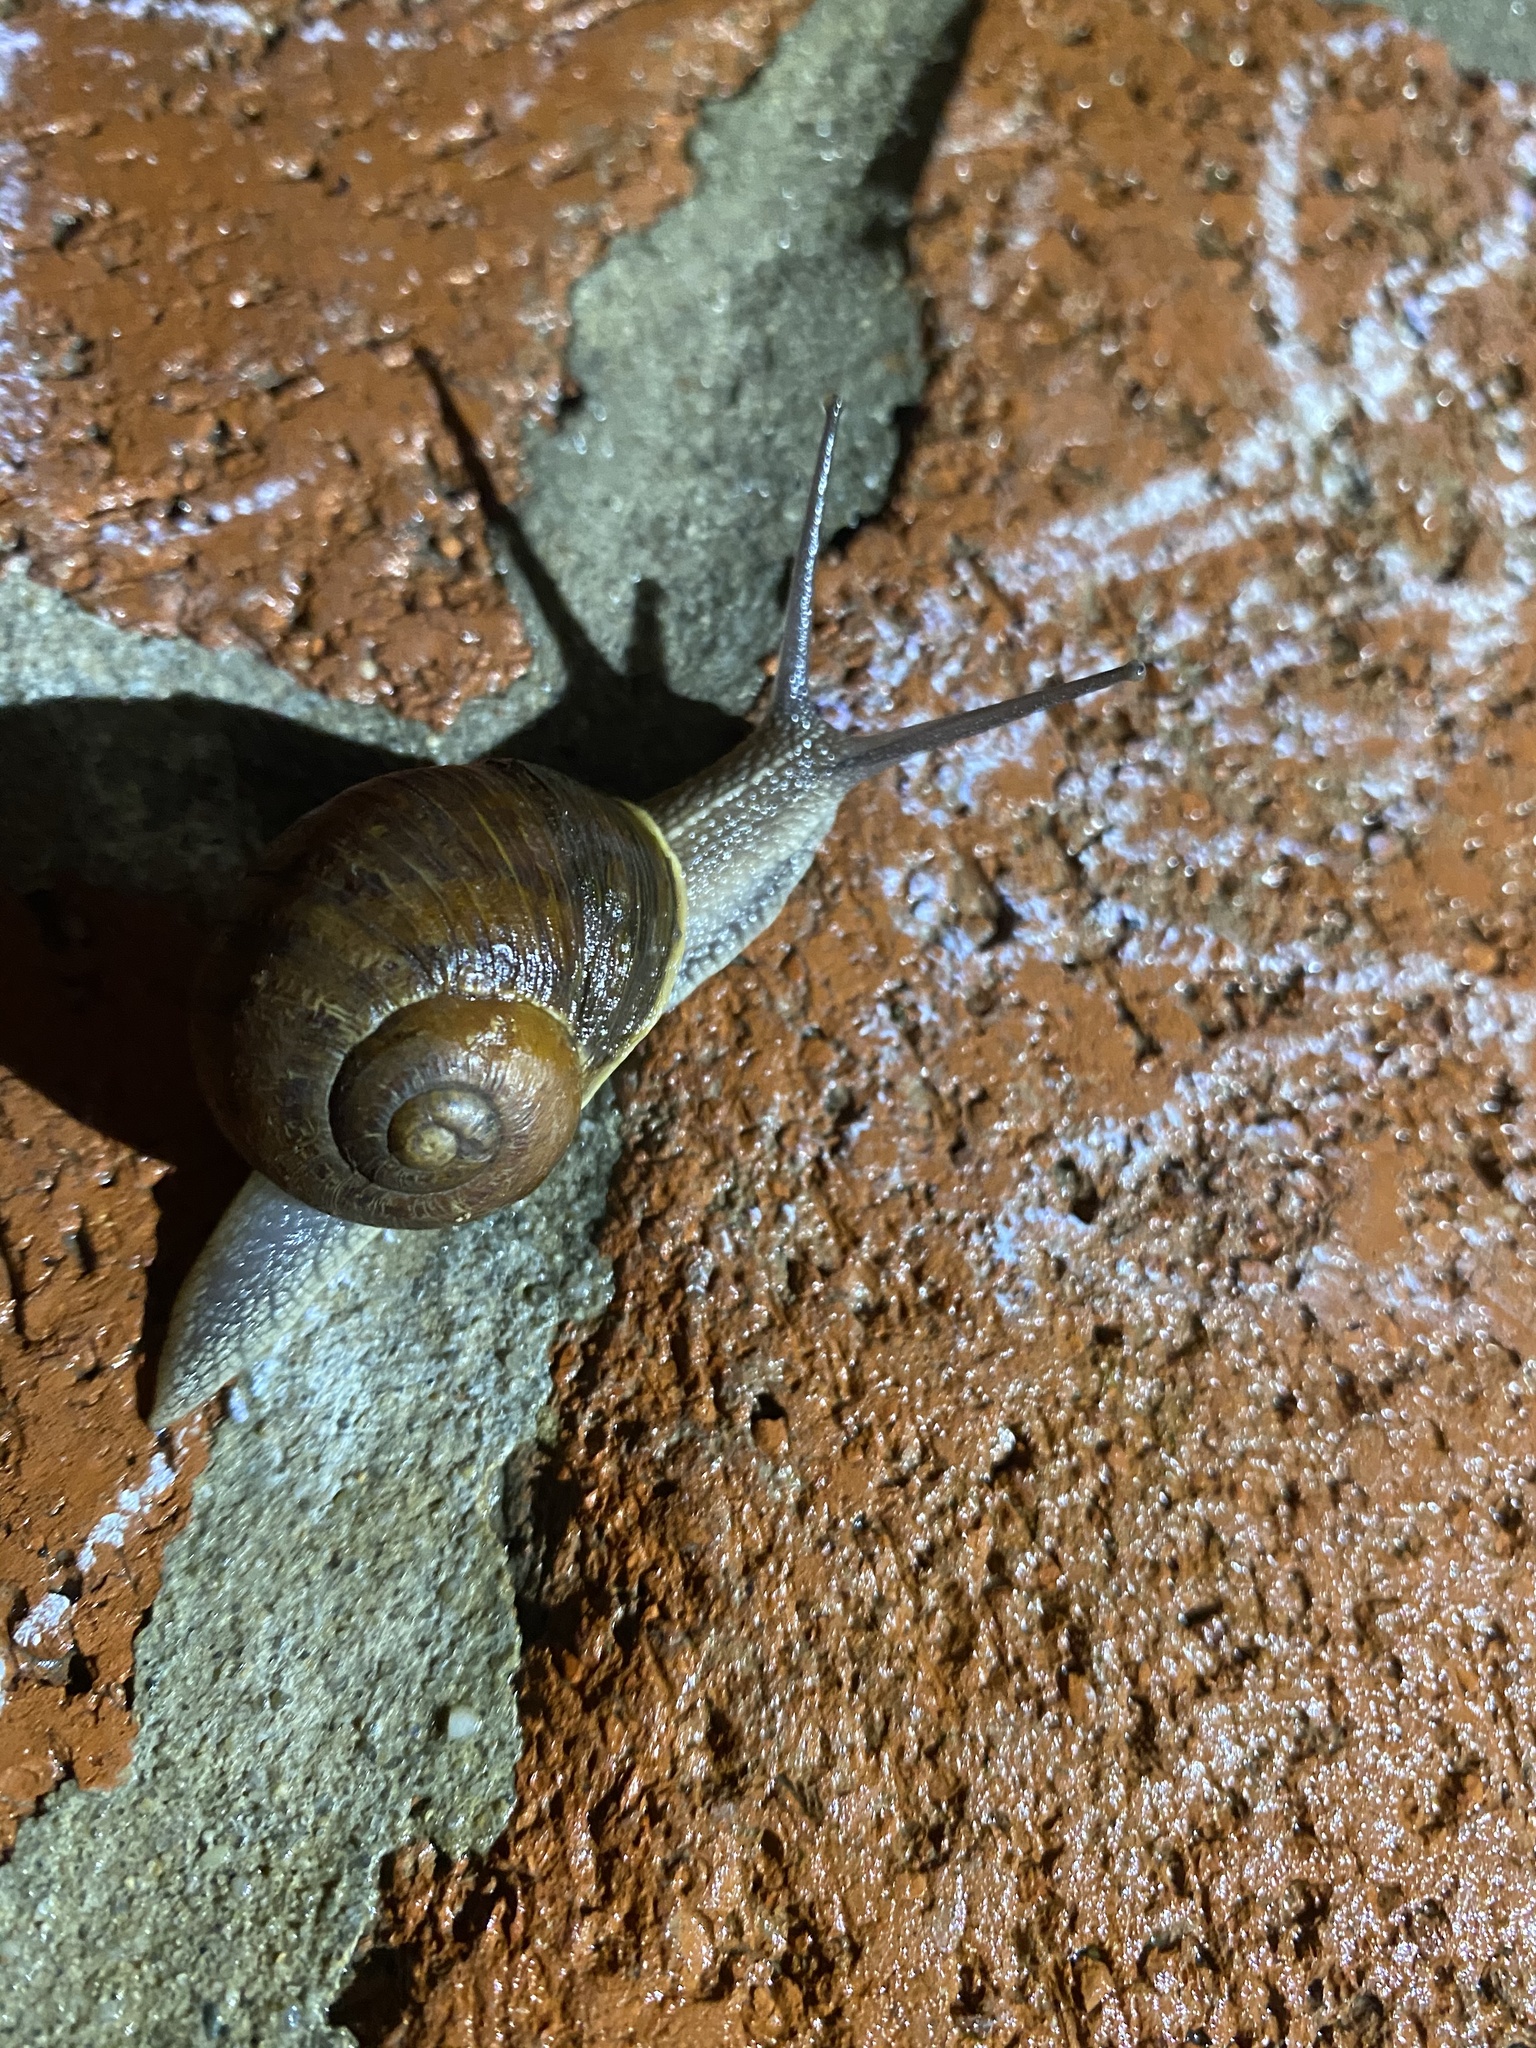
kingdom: Animalia
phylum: Mollusca
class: Gastropoda
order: Stylommatophora
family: Helicidae
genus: Cornu
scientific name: Cornu aspersum
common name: Brown garden snail
